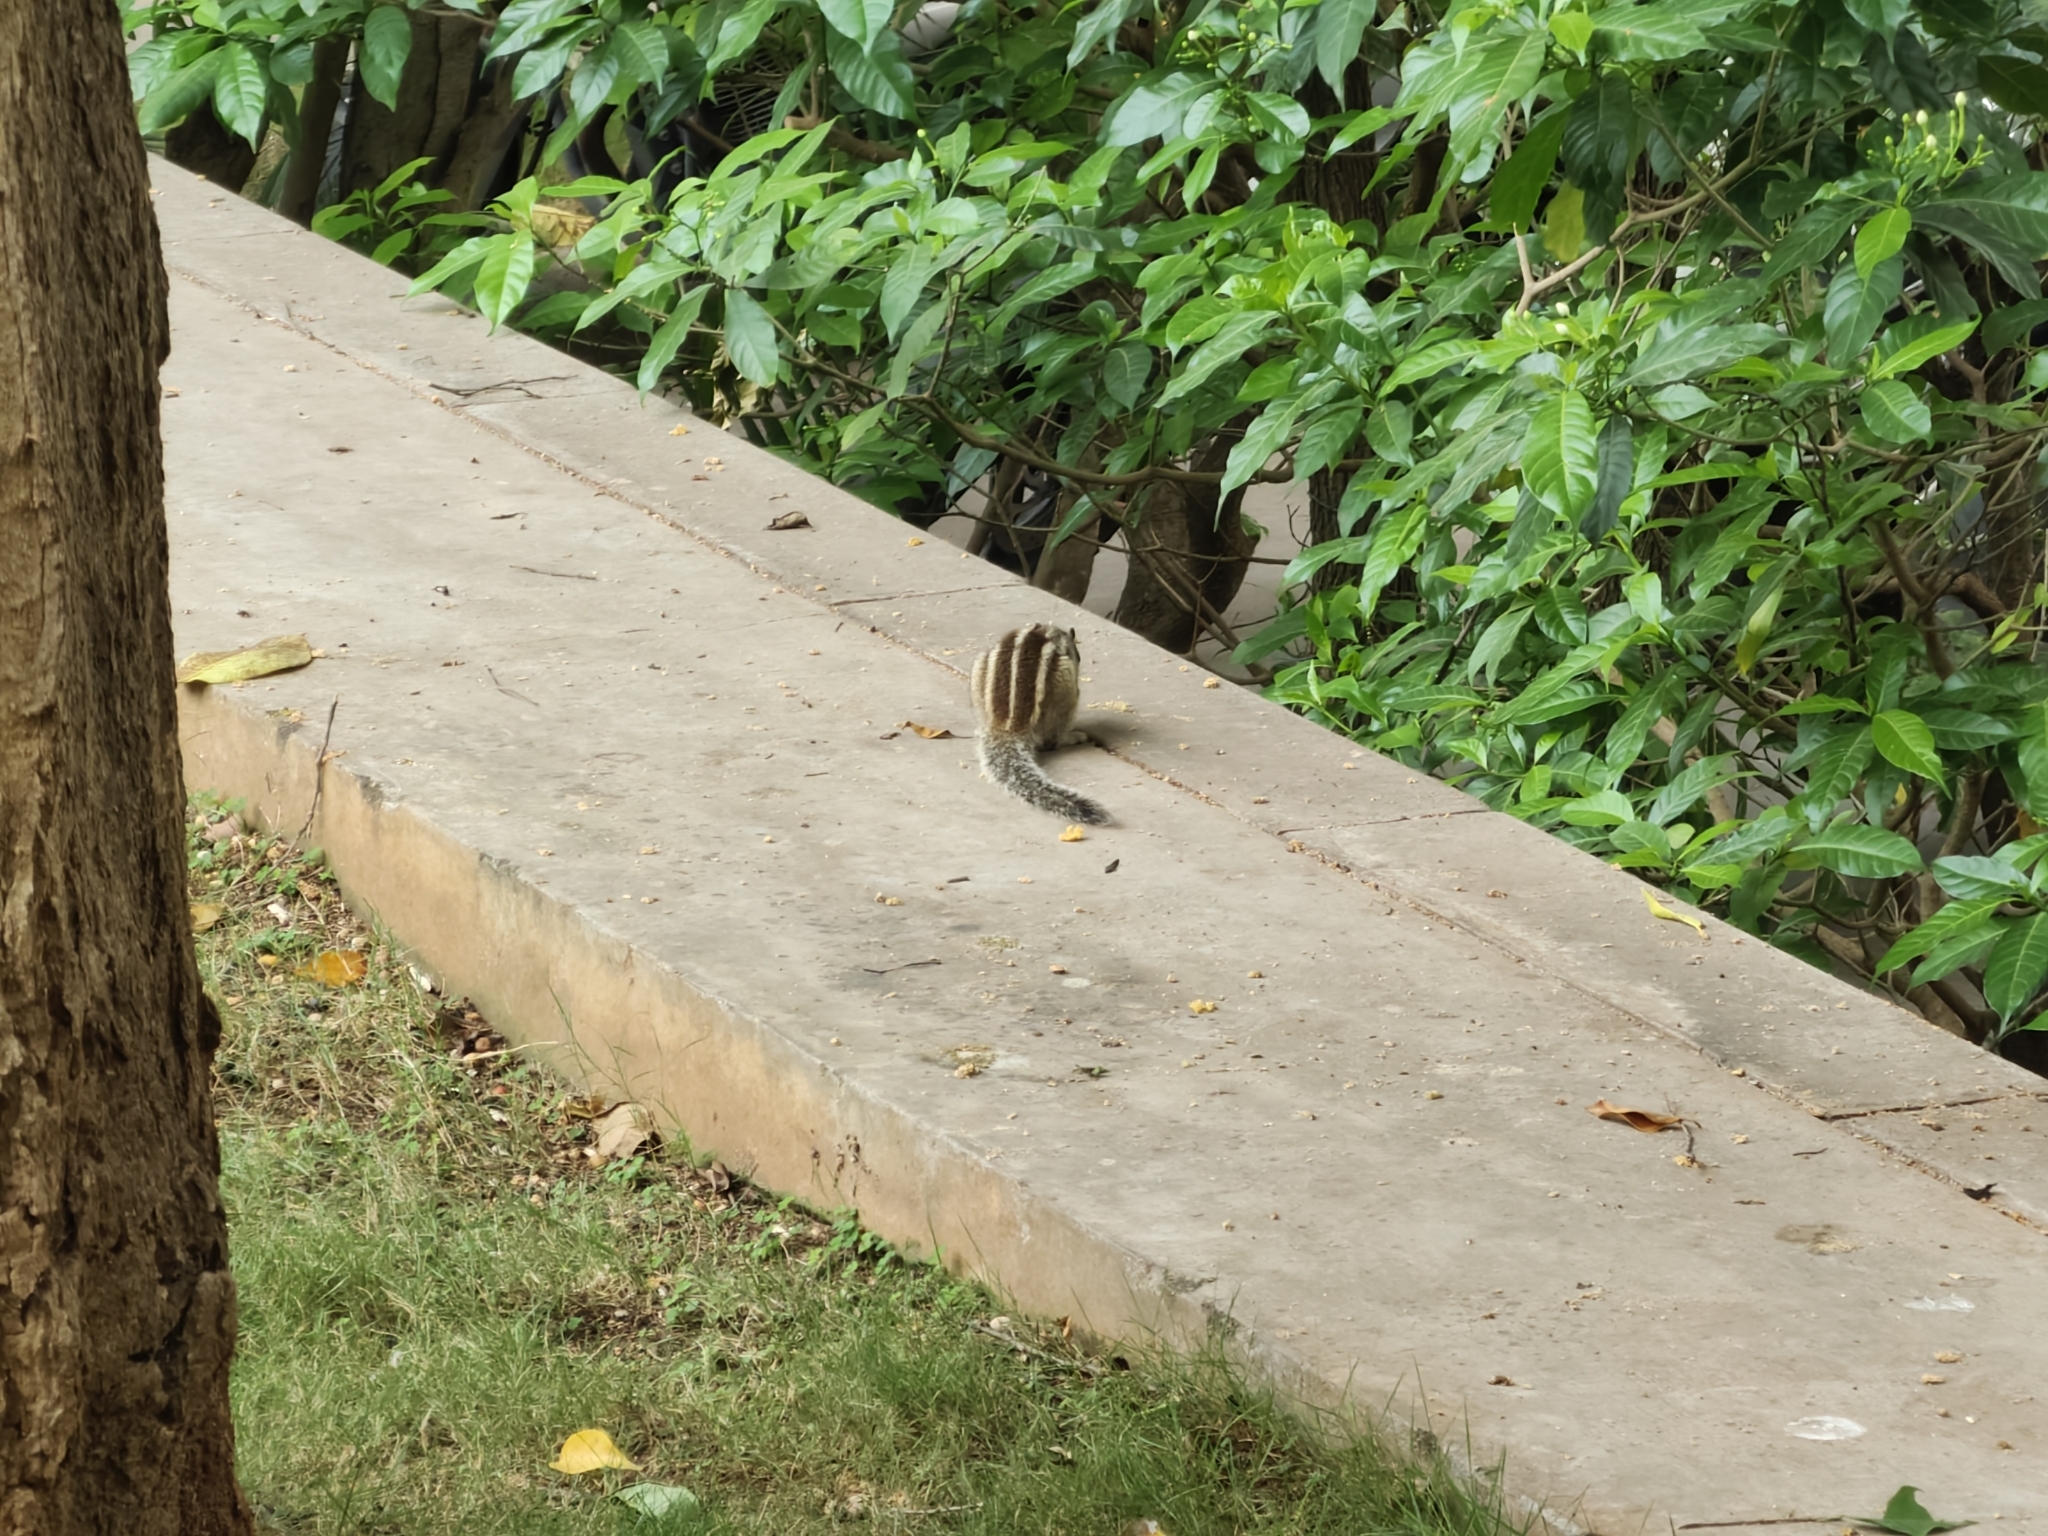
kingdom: Animalia
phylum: Chordata
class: Mammalia
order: Rodentia
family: Sciuridae
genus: Funambulus
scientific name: Funambulus pennantii
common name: Northern palm squirrel
